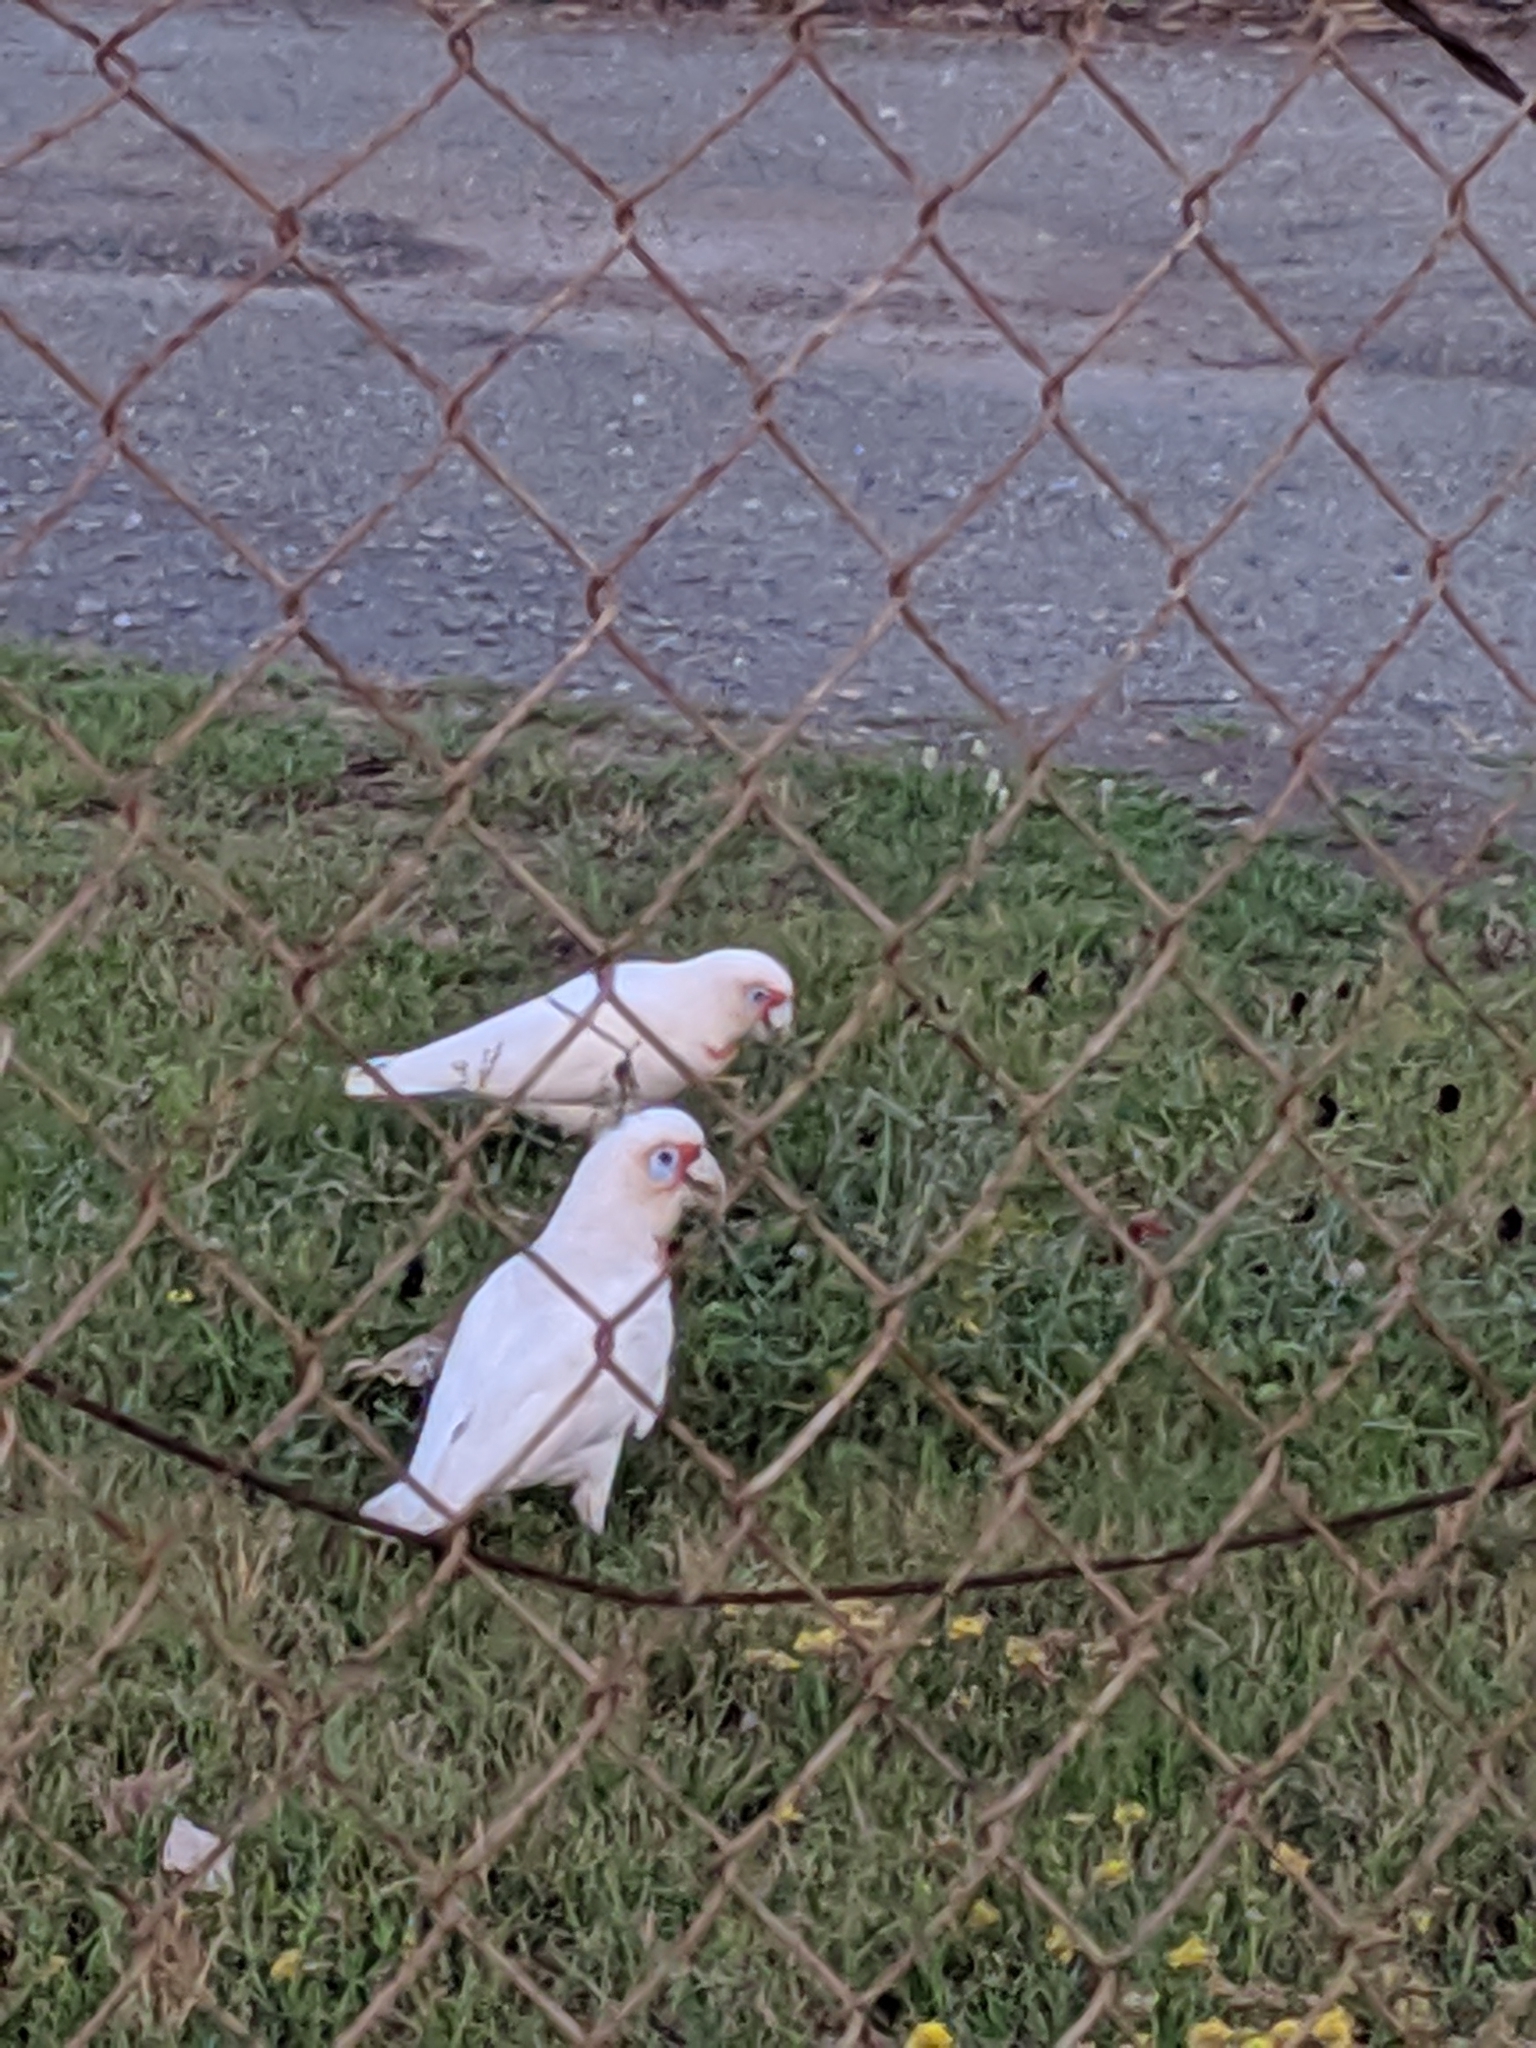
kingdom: Animalia
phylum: Chordata
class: Aves
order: Psittaciformes
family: Psittacidae
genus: Cacatua
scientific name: Cacatua tenuirostris
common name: Long-billed corella
